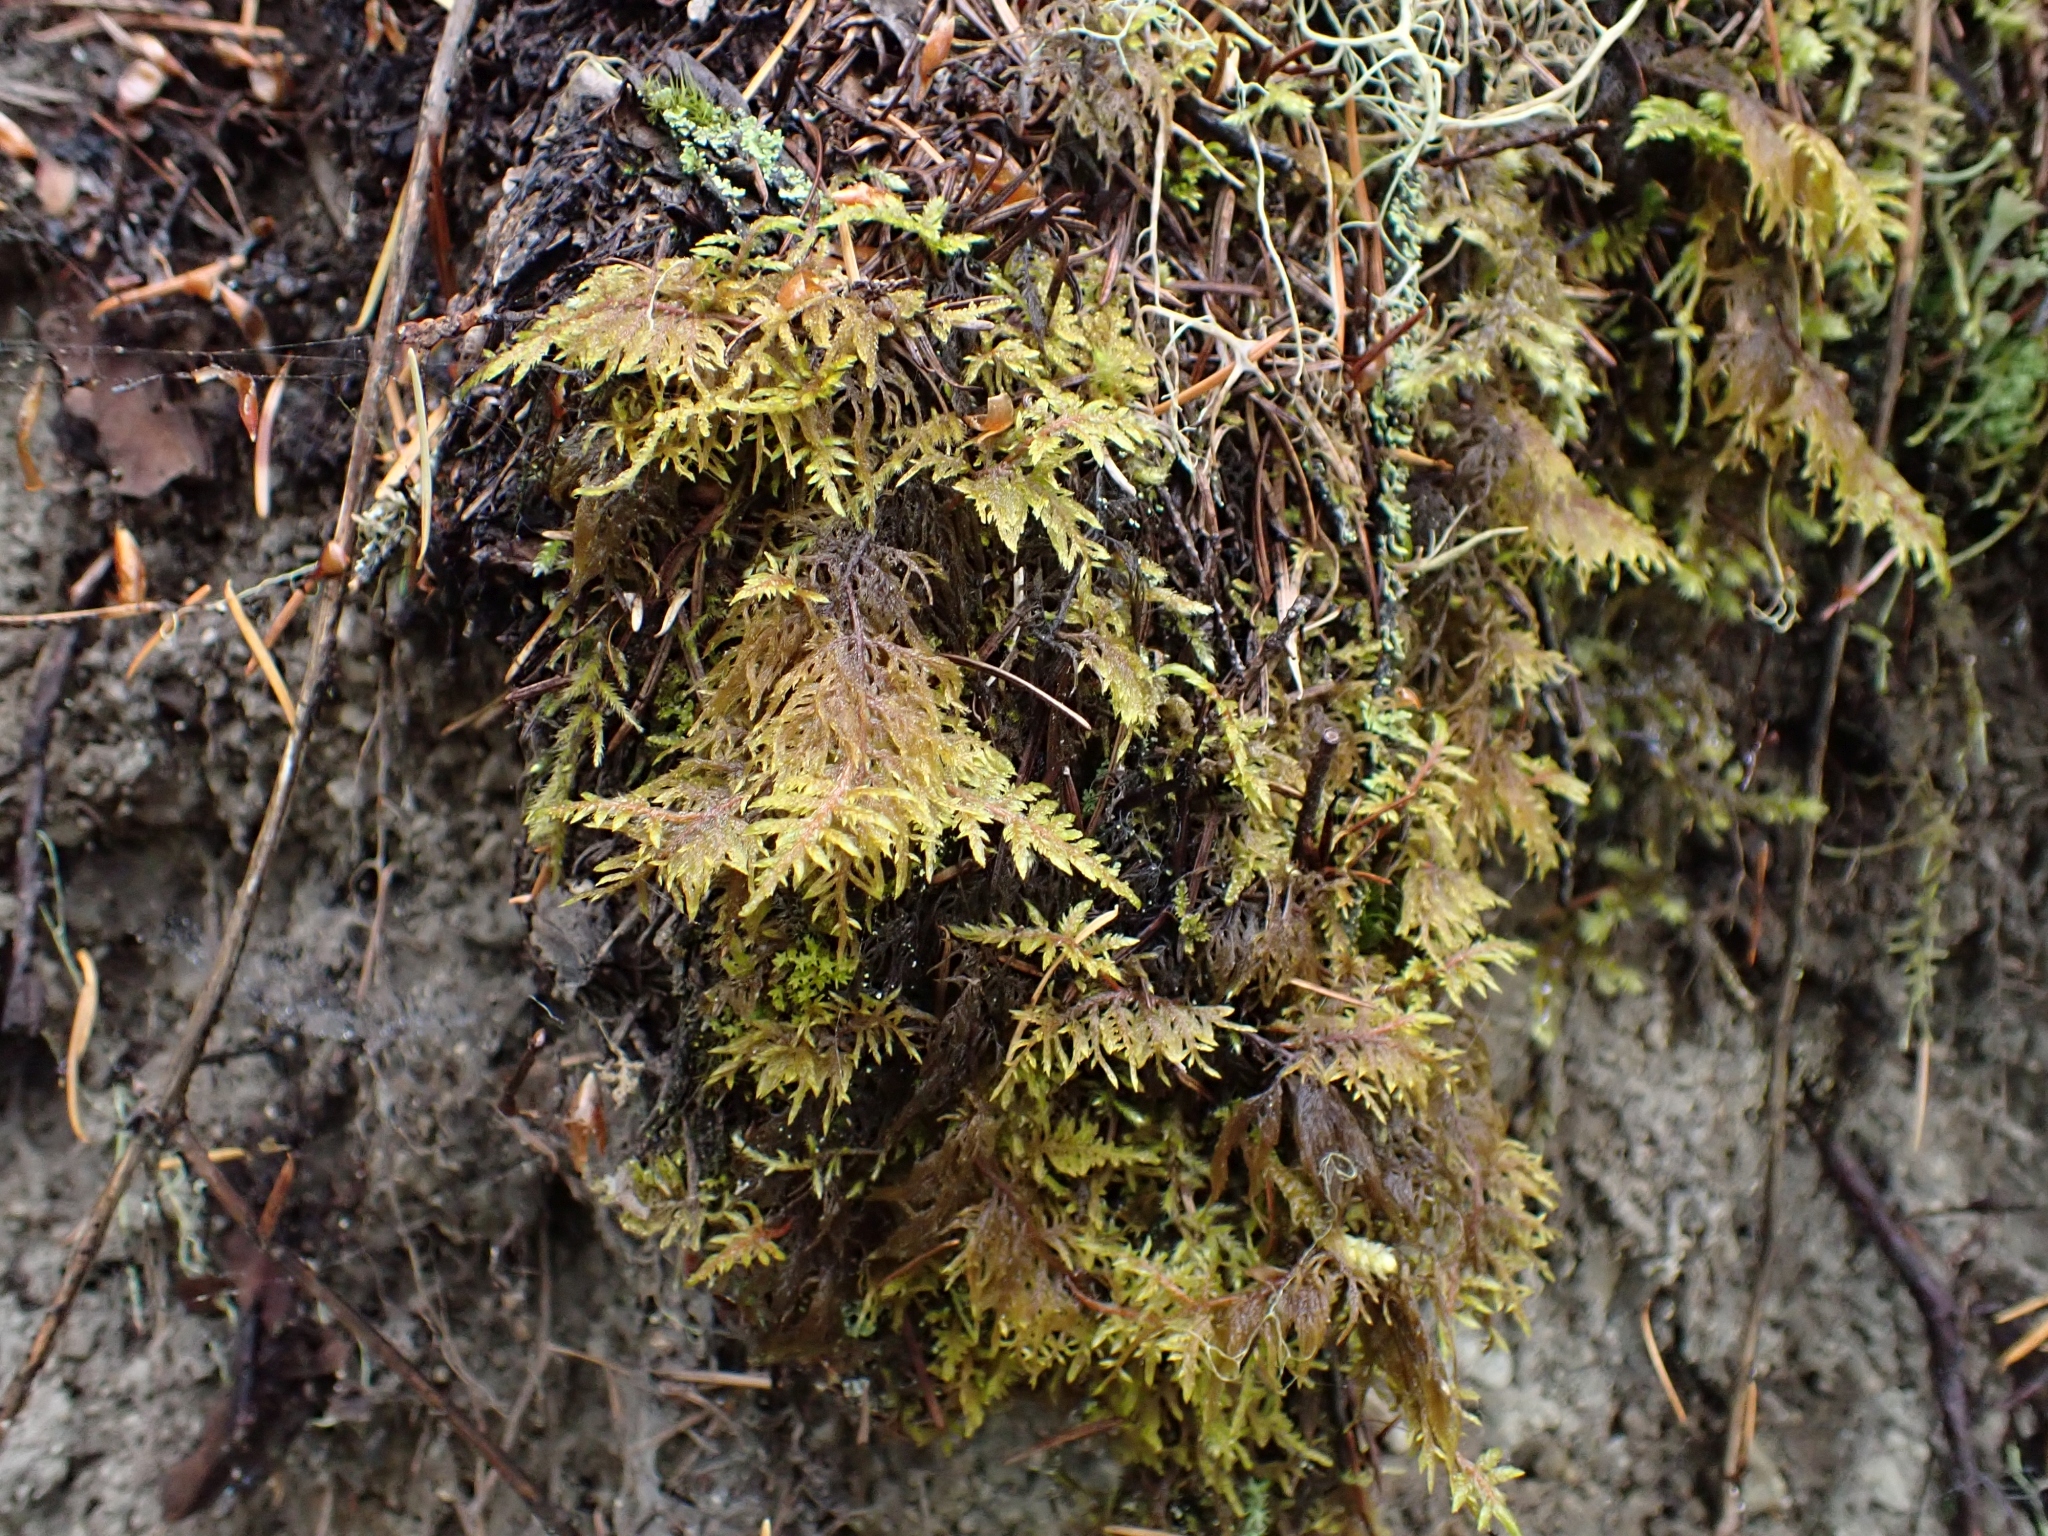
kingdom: Plantae
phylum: Bryophyta
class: Bryopsida
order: Hypnales
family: Hylocomiaceae
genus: Hylocomium
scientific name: Hylocomium splendens
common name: Stairstep moss
